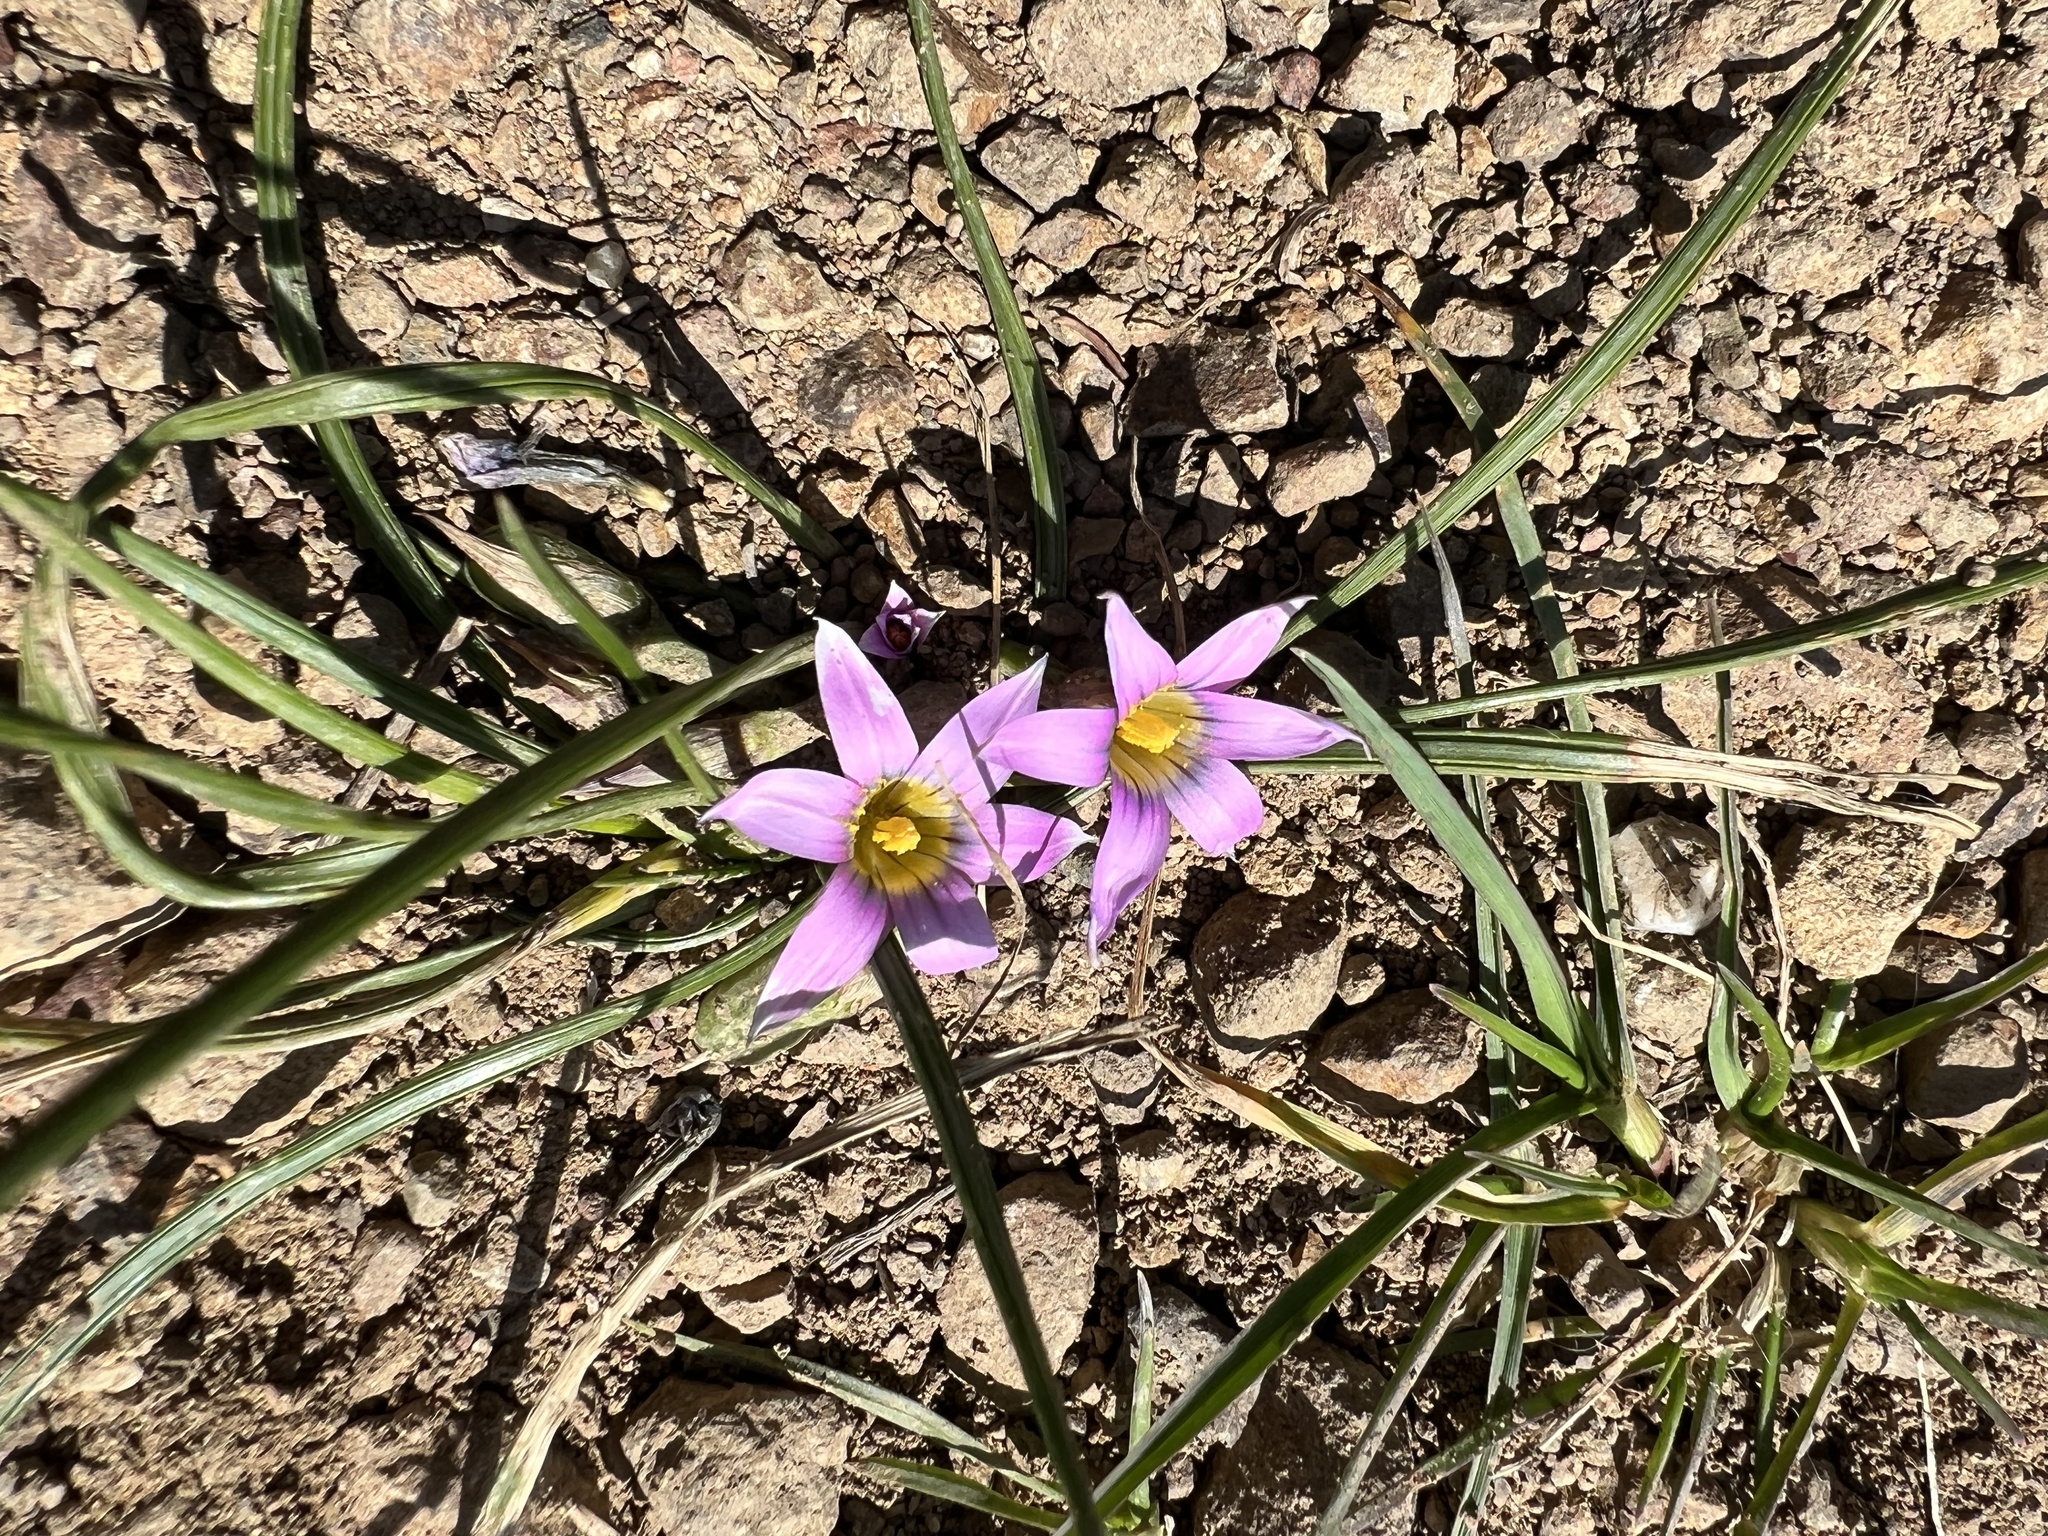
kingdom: Plantae
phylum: Tracheophyta
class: Liliopsida
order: Asparagales
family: Iridaceae
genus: Romulea
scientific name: Romulea rosea
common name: Oniongrass
